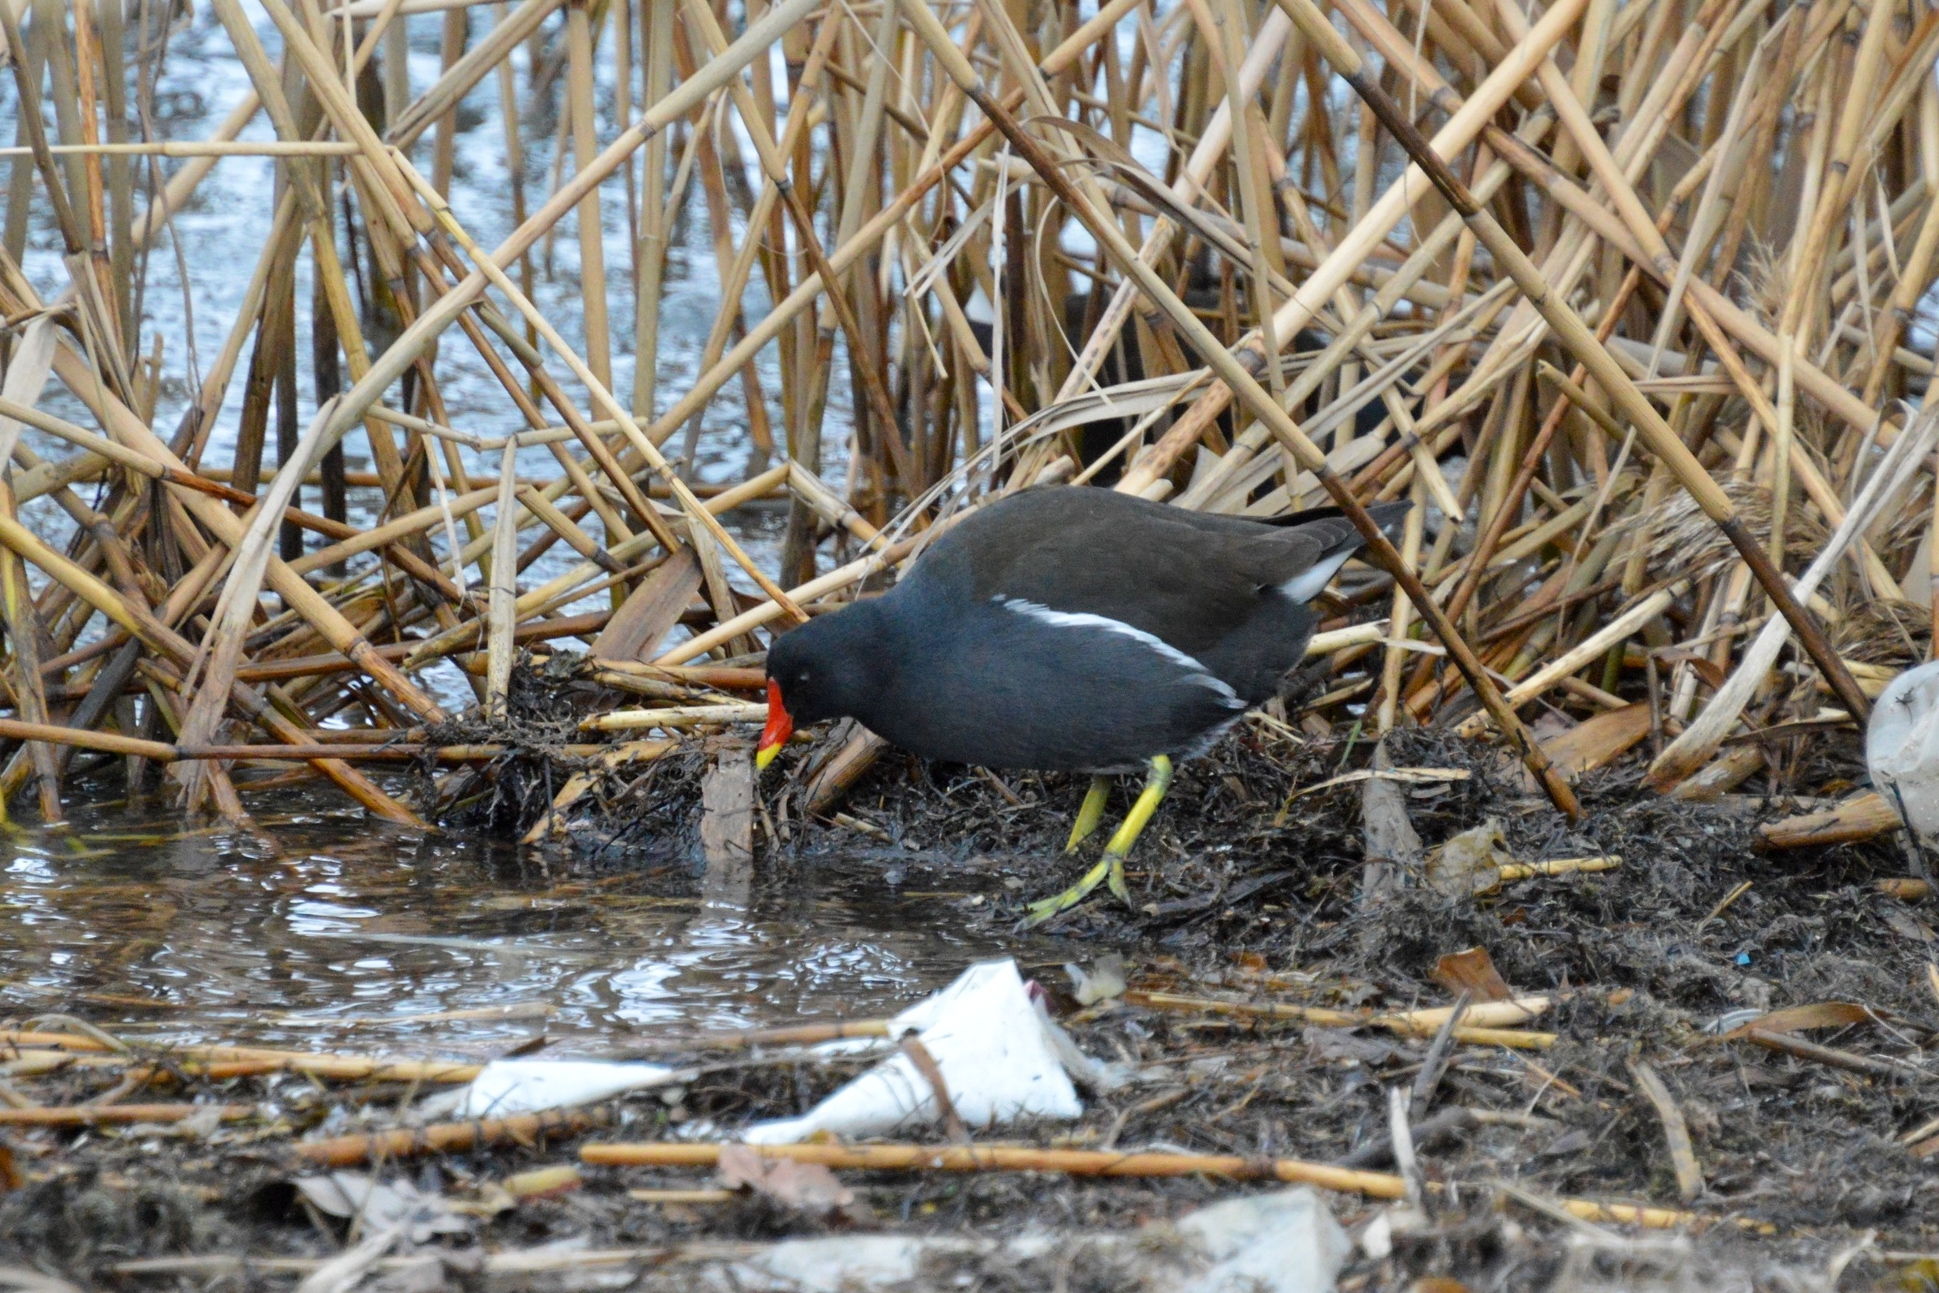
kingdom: Animalia
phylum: Chordata
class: Aves
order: Gruiformes
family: Rallidae
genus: Gallinula
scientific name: Gallinula chloropus
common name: Common moorhen
